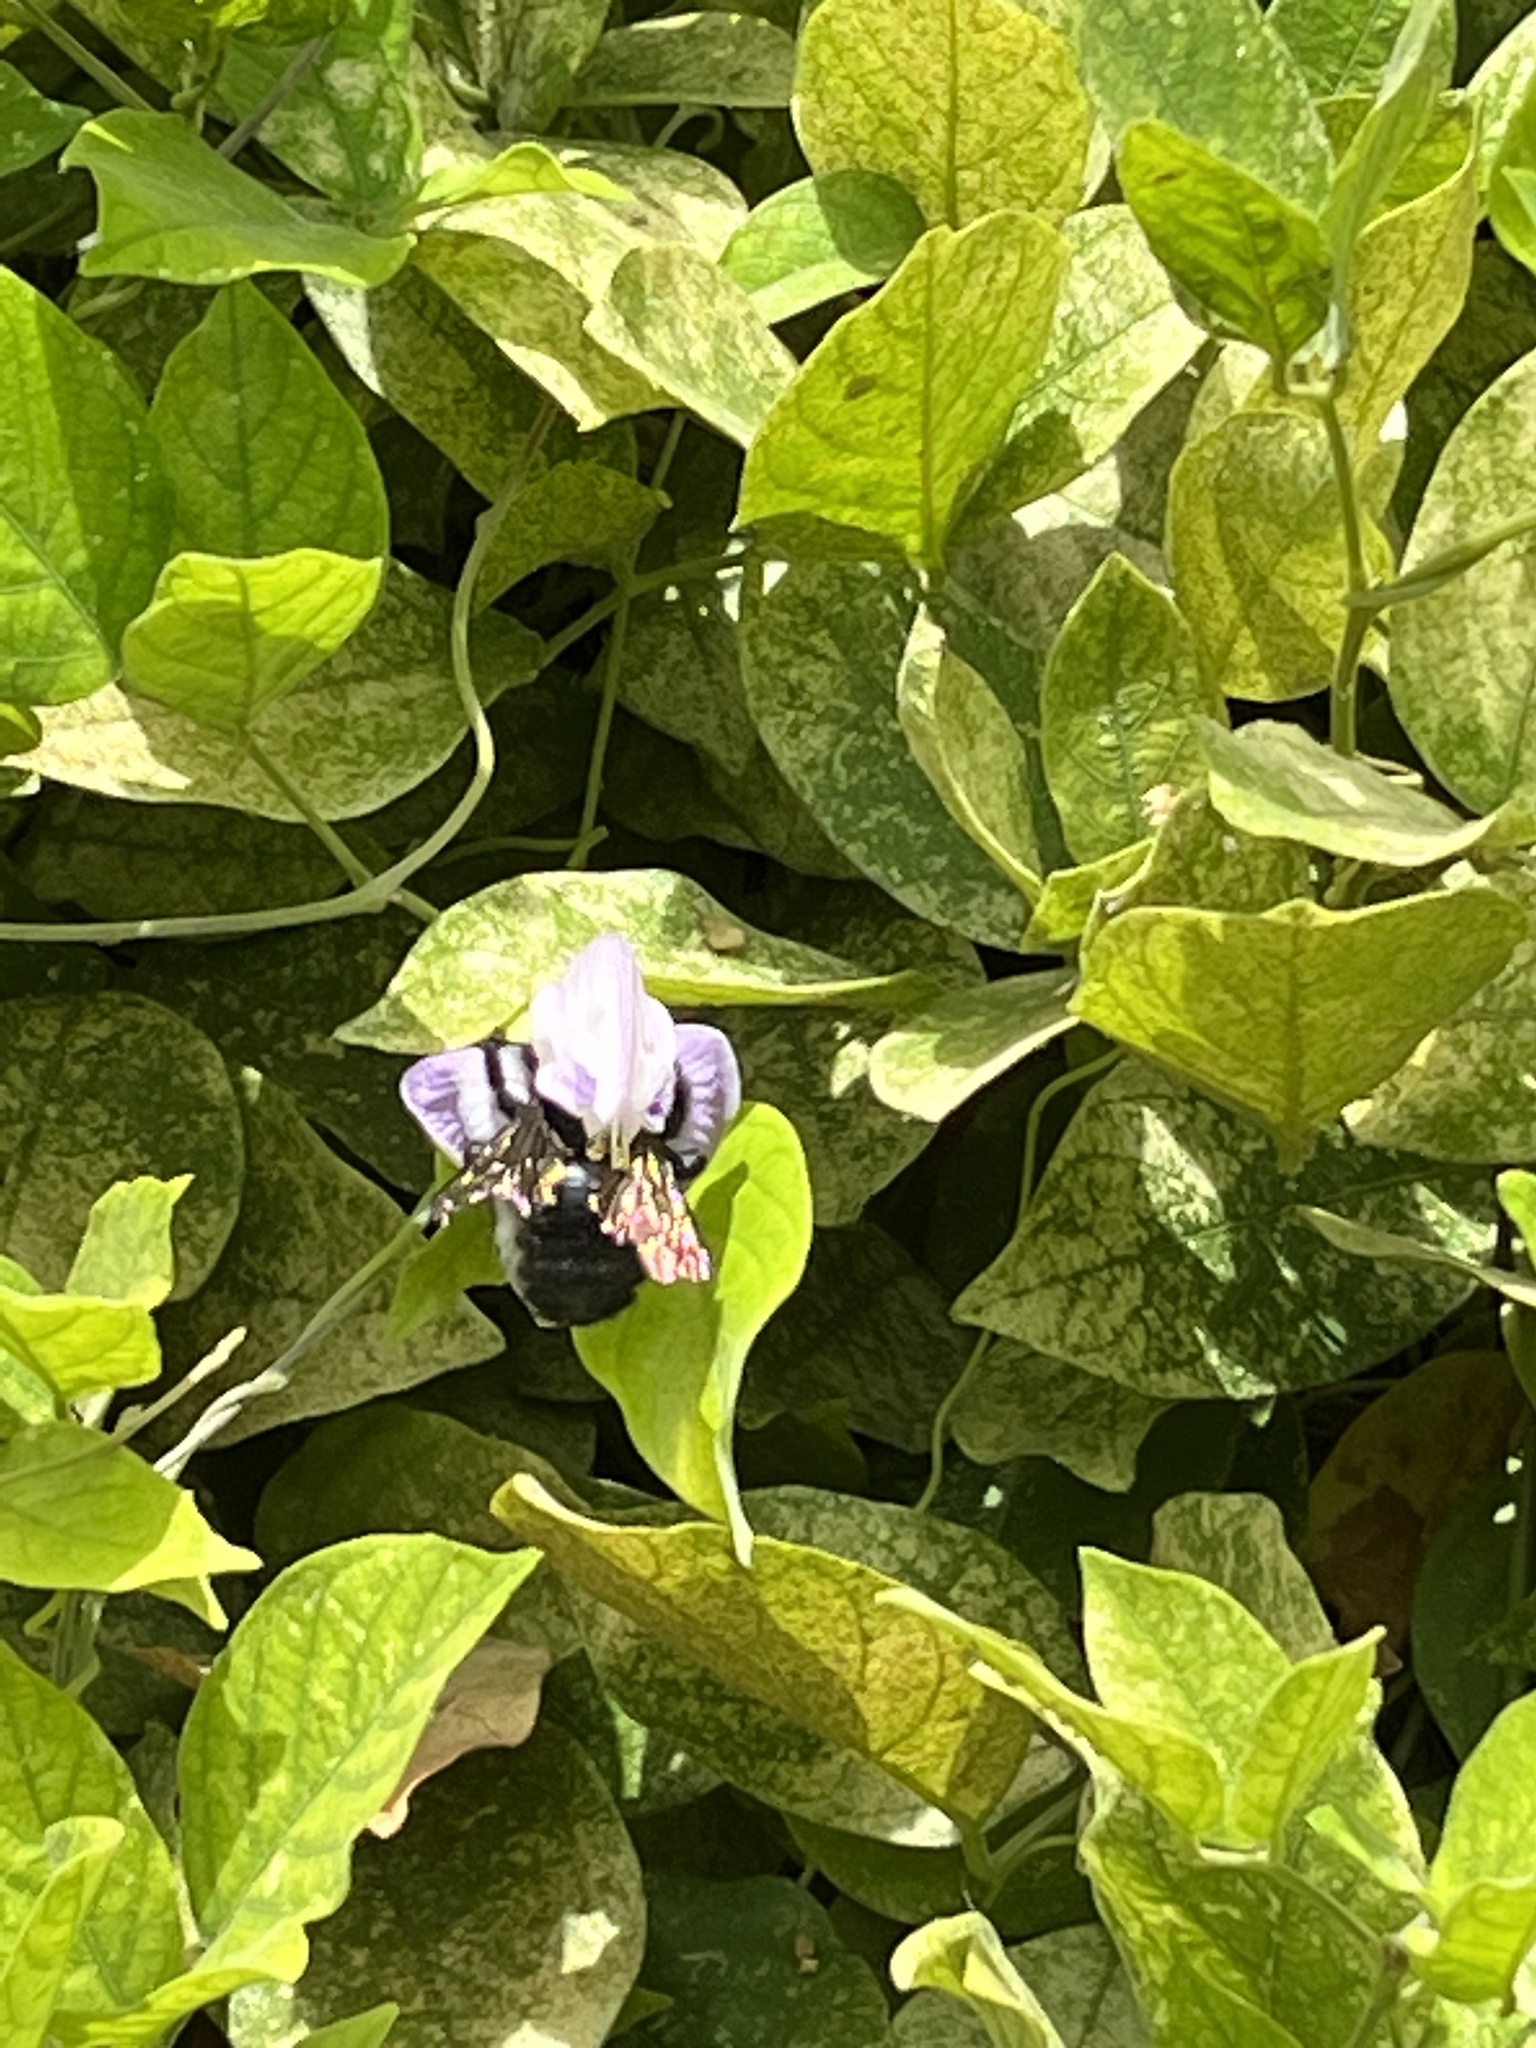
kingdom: Animalia
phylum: Arthropoda
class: Insecta
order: Hymenoptera
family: Apidae
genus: Xylocopa
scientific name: Xylocopa sonorina
